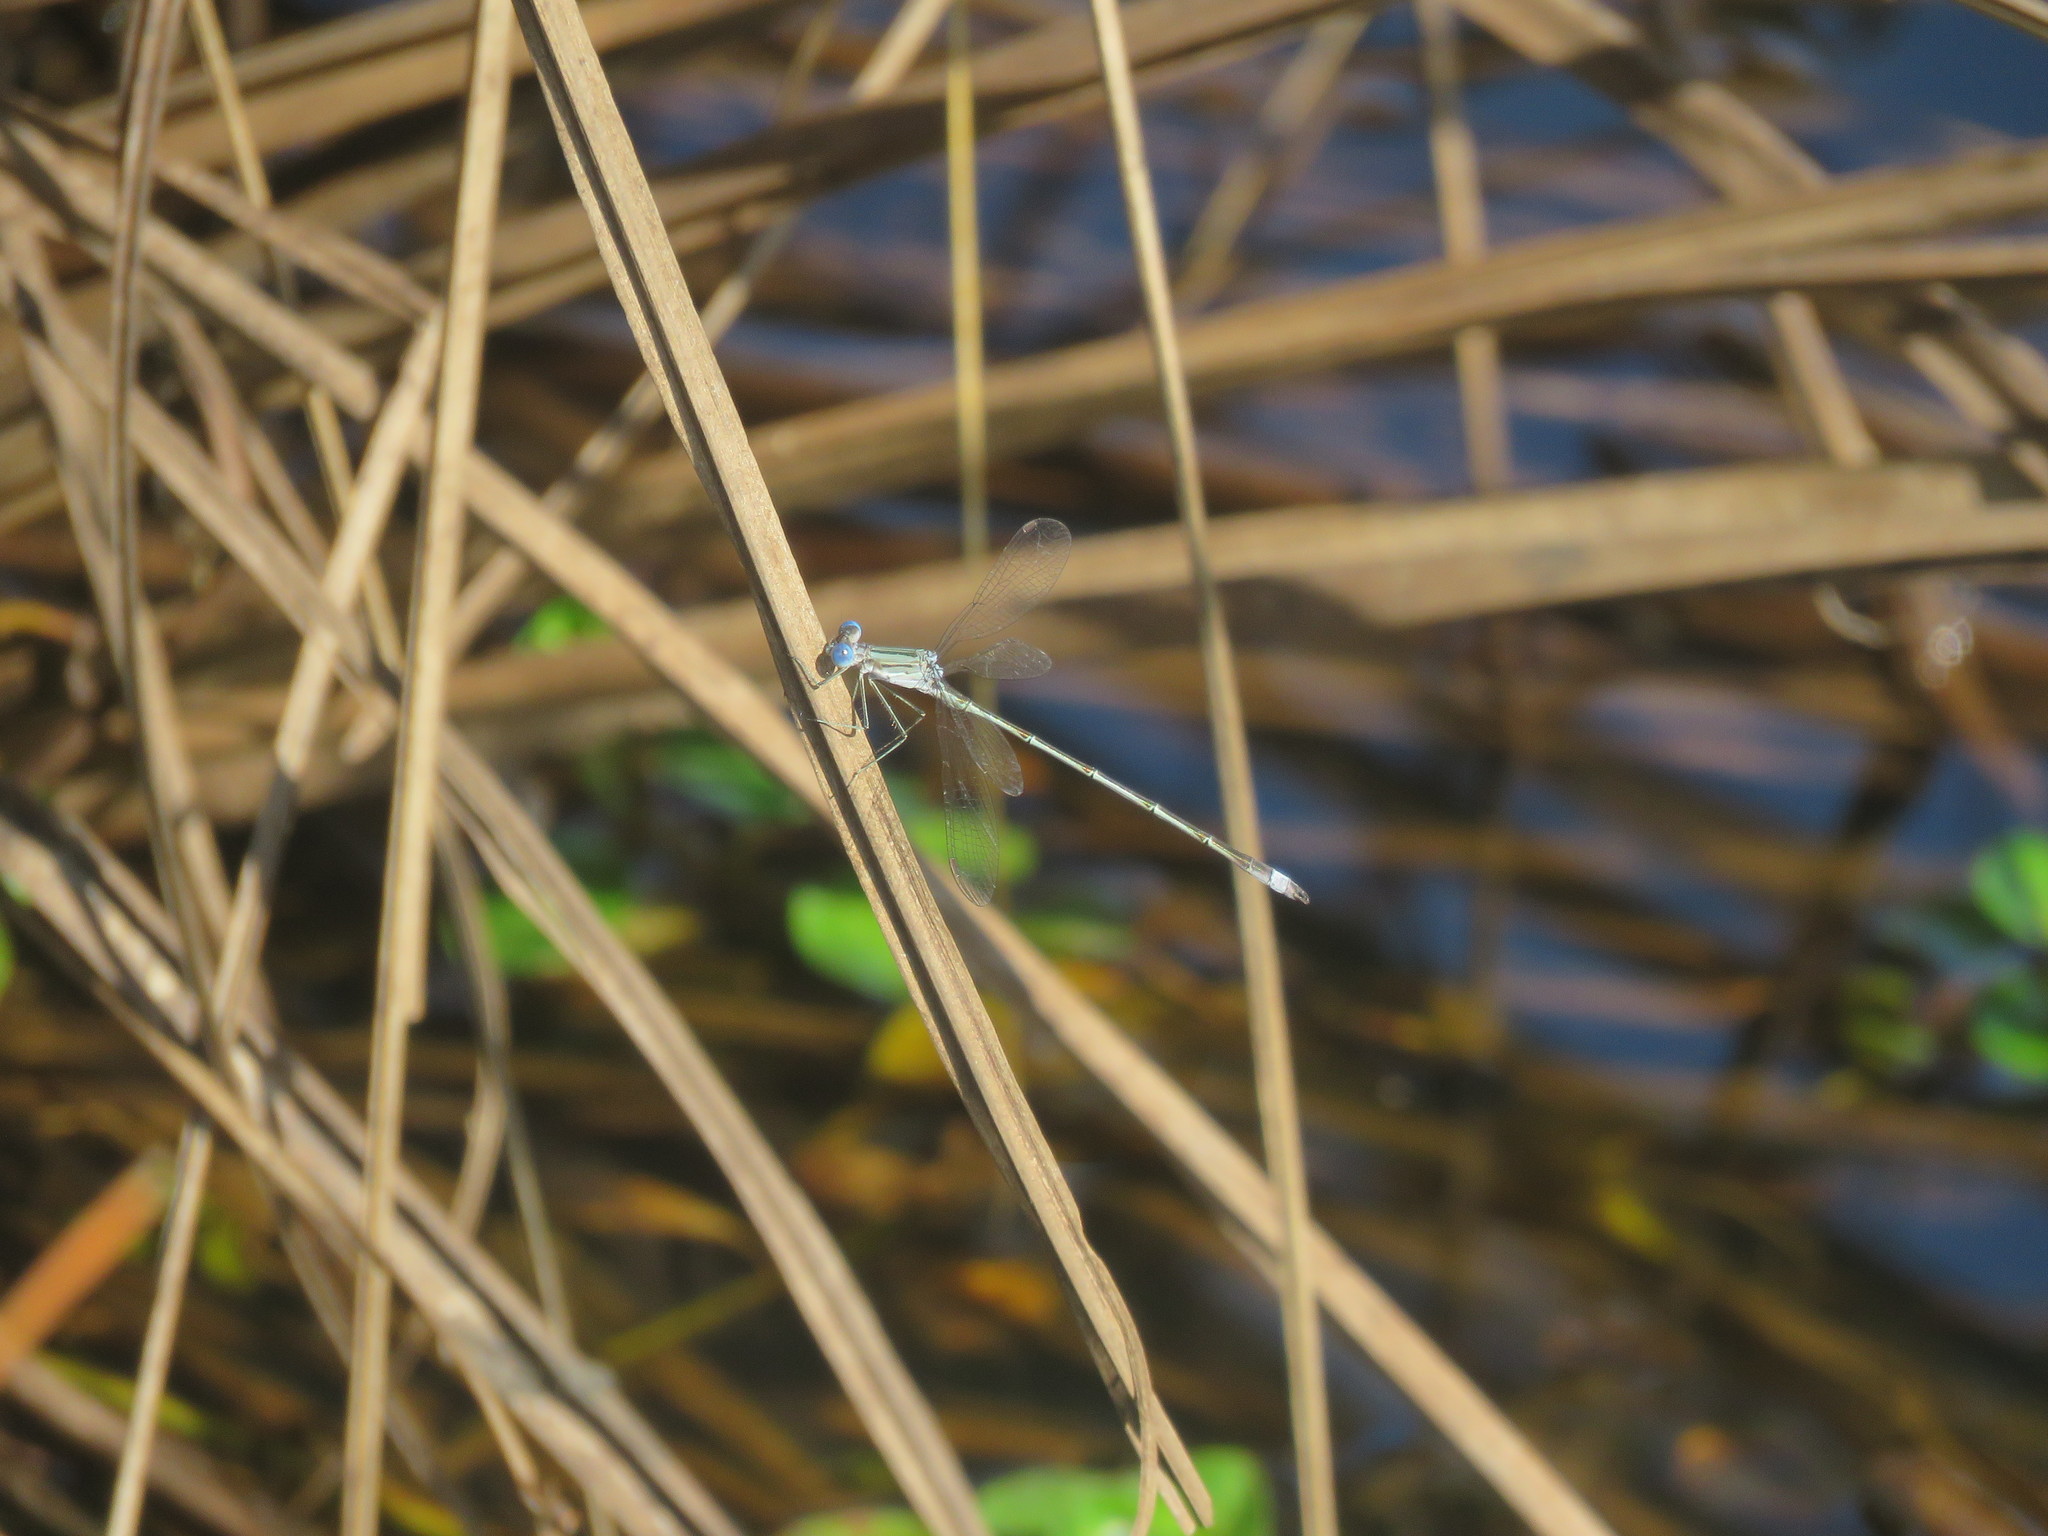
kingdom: Animalia
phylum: Arthropoda
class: Insecta
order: Odonata
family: Lestidae
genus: Lestes
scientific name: Lestes spatula
